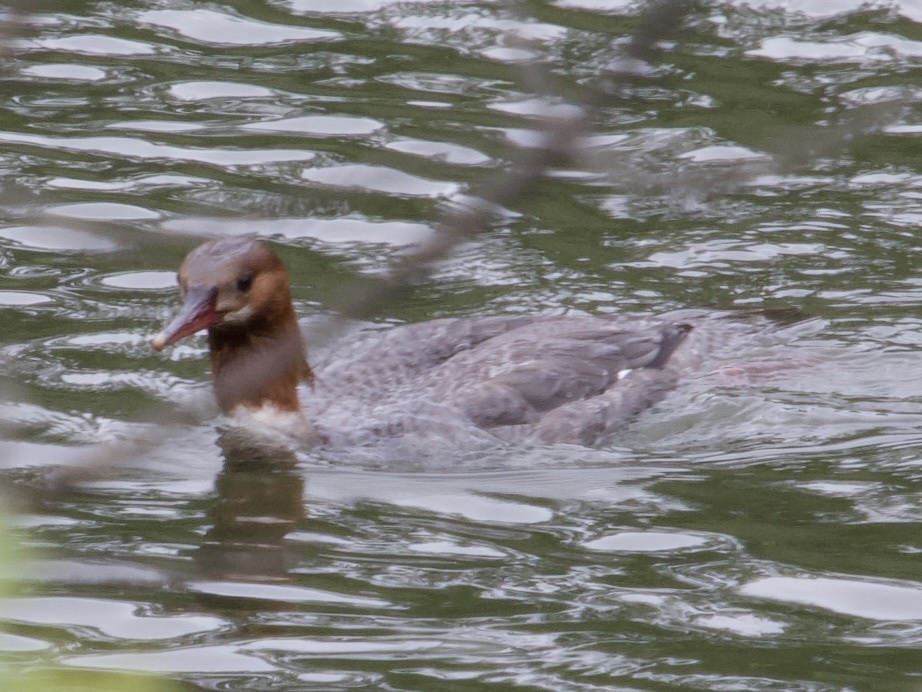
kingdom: Animalia
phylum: Chordata
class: Aves
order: Anseriformes
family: Anatidae
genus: Mergus
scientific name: Mergus merganser
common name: Common merganser
